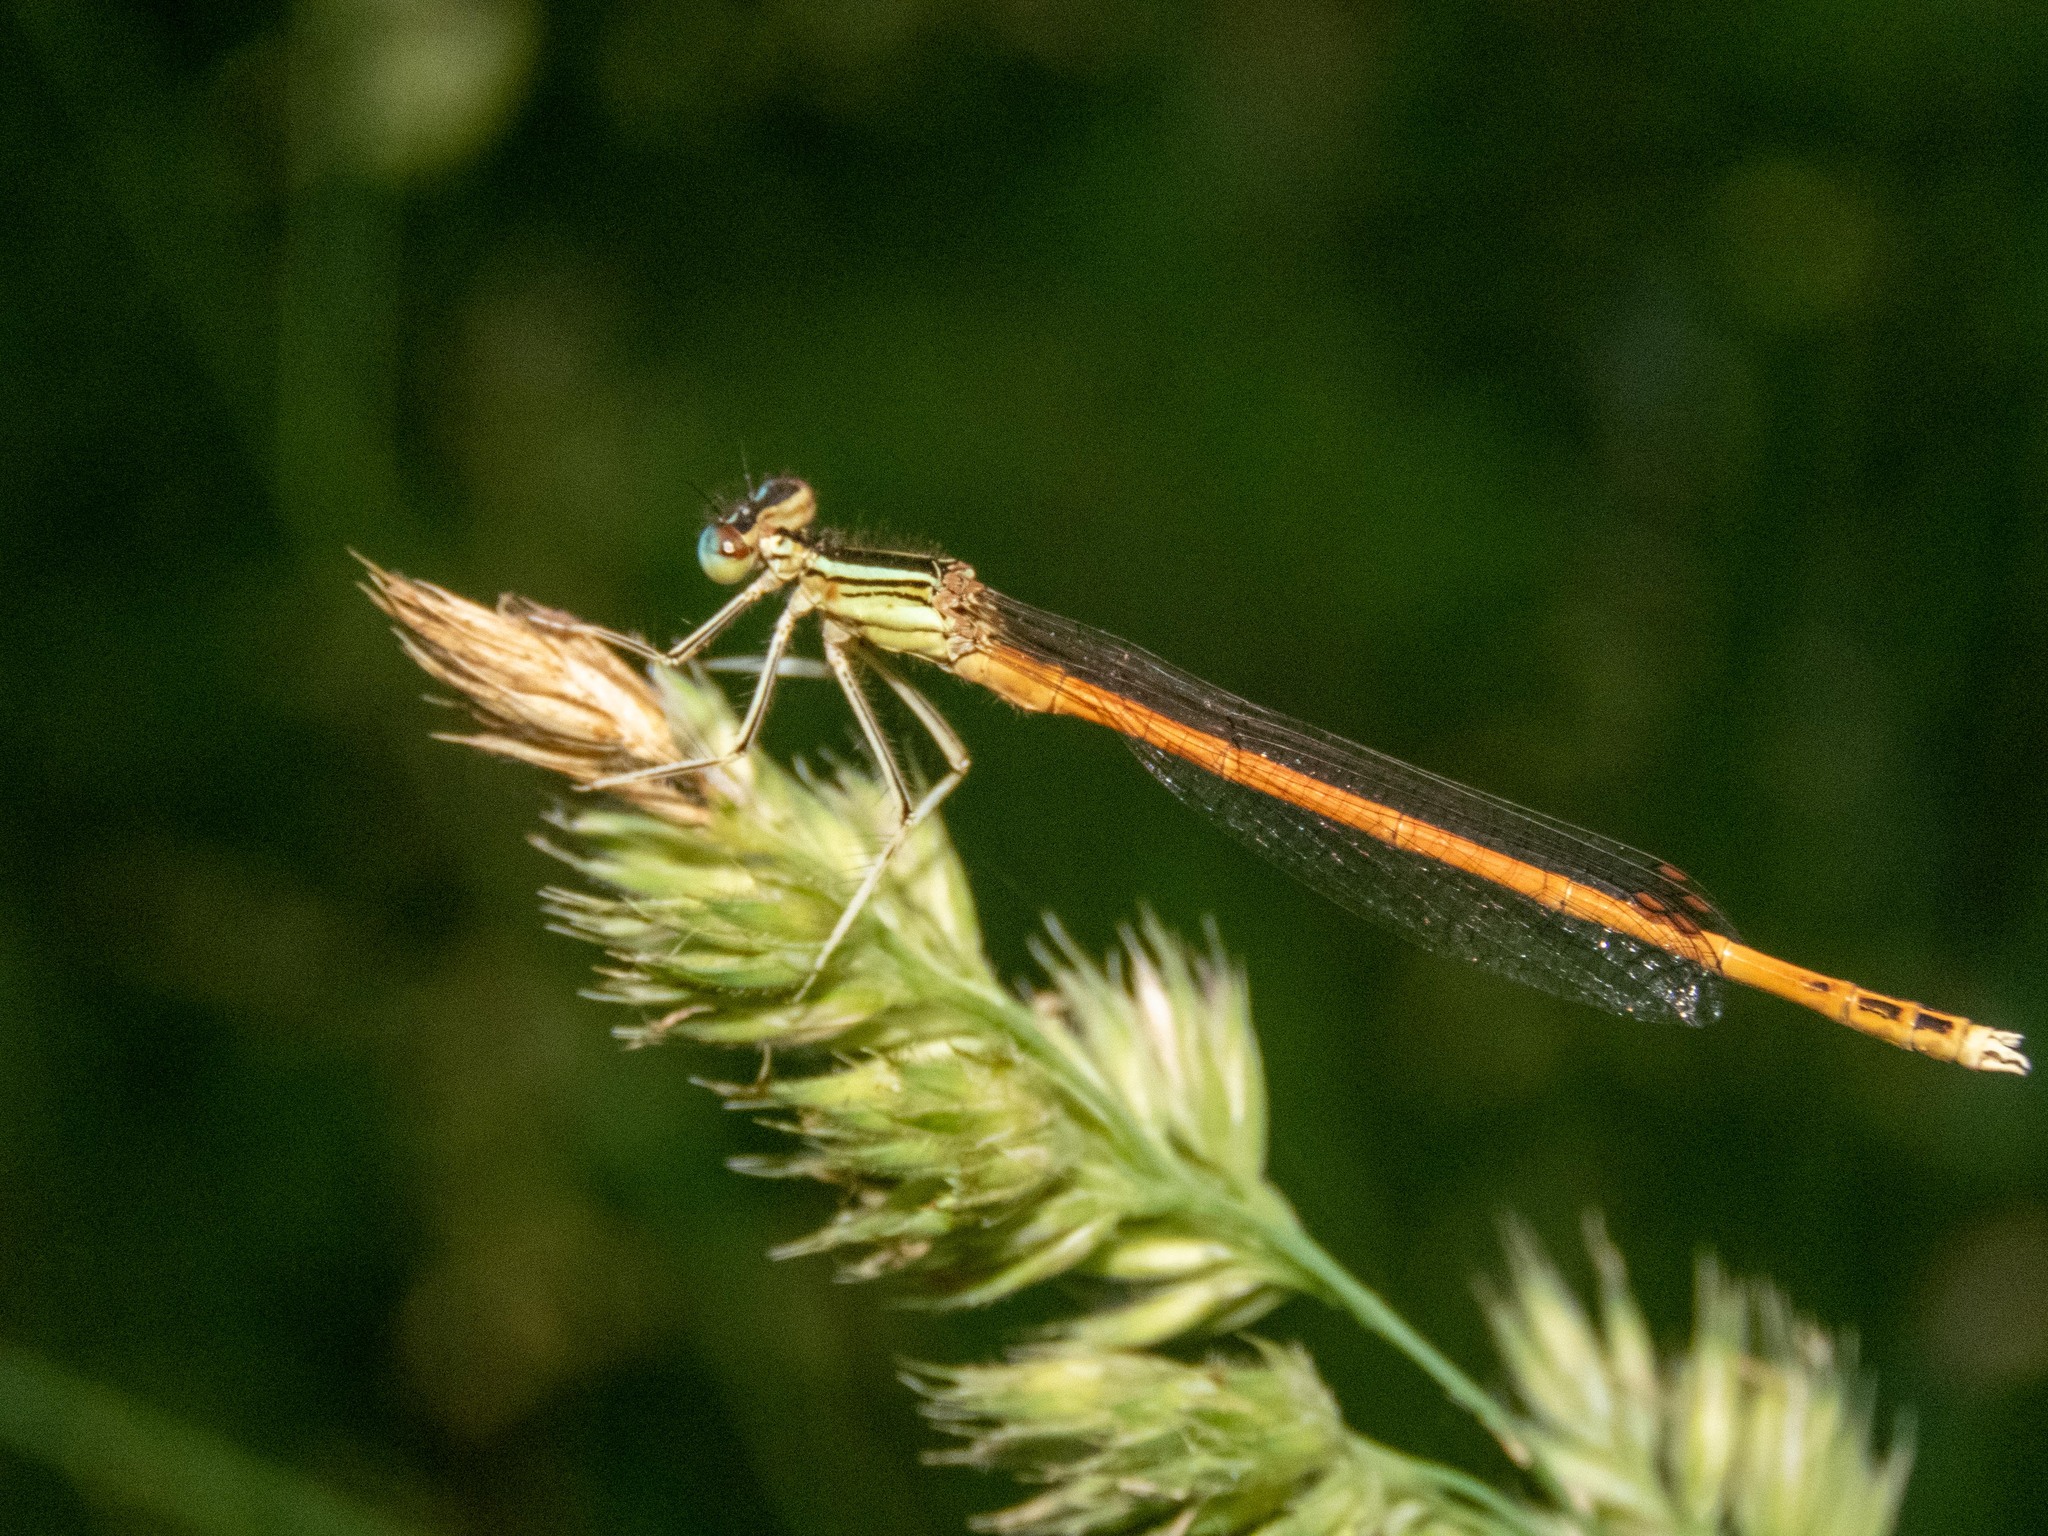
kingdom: Animalia
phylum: Arthropoda
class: Insecta
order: Odonata
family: Platycnemididae
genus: Platycnemis
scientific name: Platycnemis acutipennis
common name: Orange featherleg
